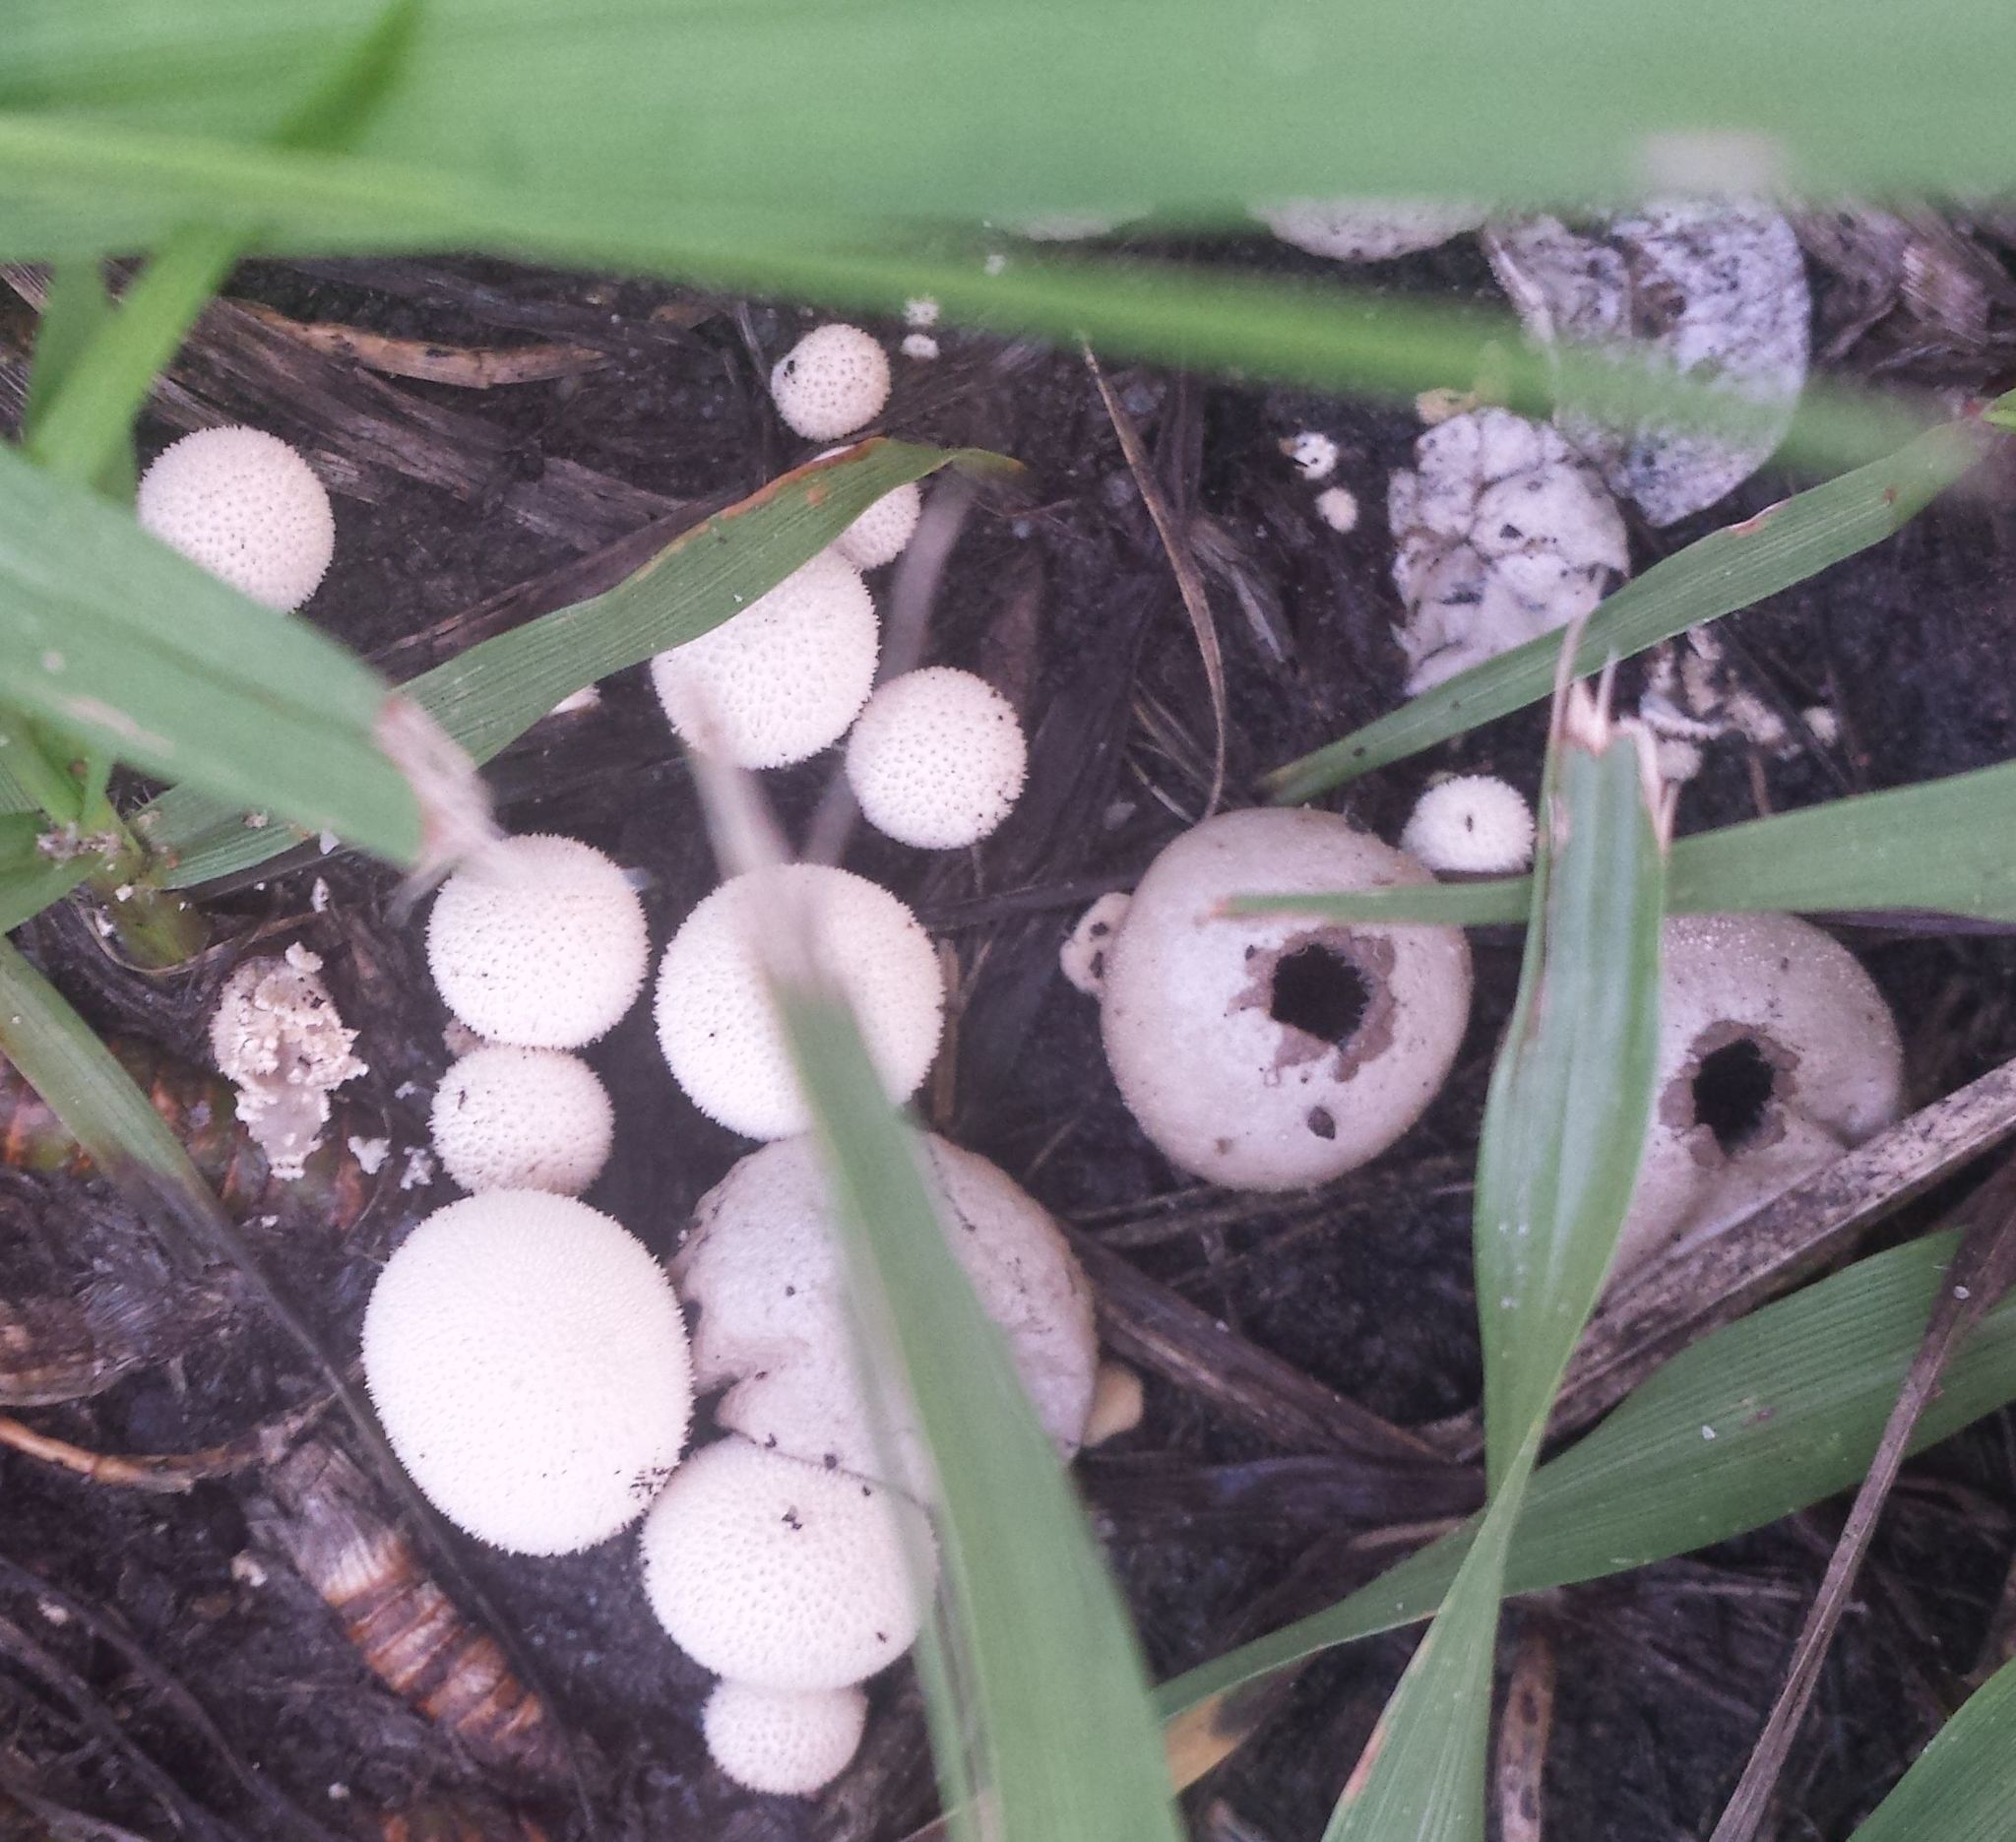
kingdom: Fungi
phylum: Basidiomycota
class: Agaricomycetes
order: Agaricales
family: Lycoperdaceae
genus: Apioperdon
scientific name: Apioperdon pyriforme
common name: Pear-shaped puffball
